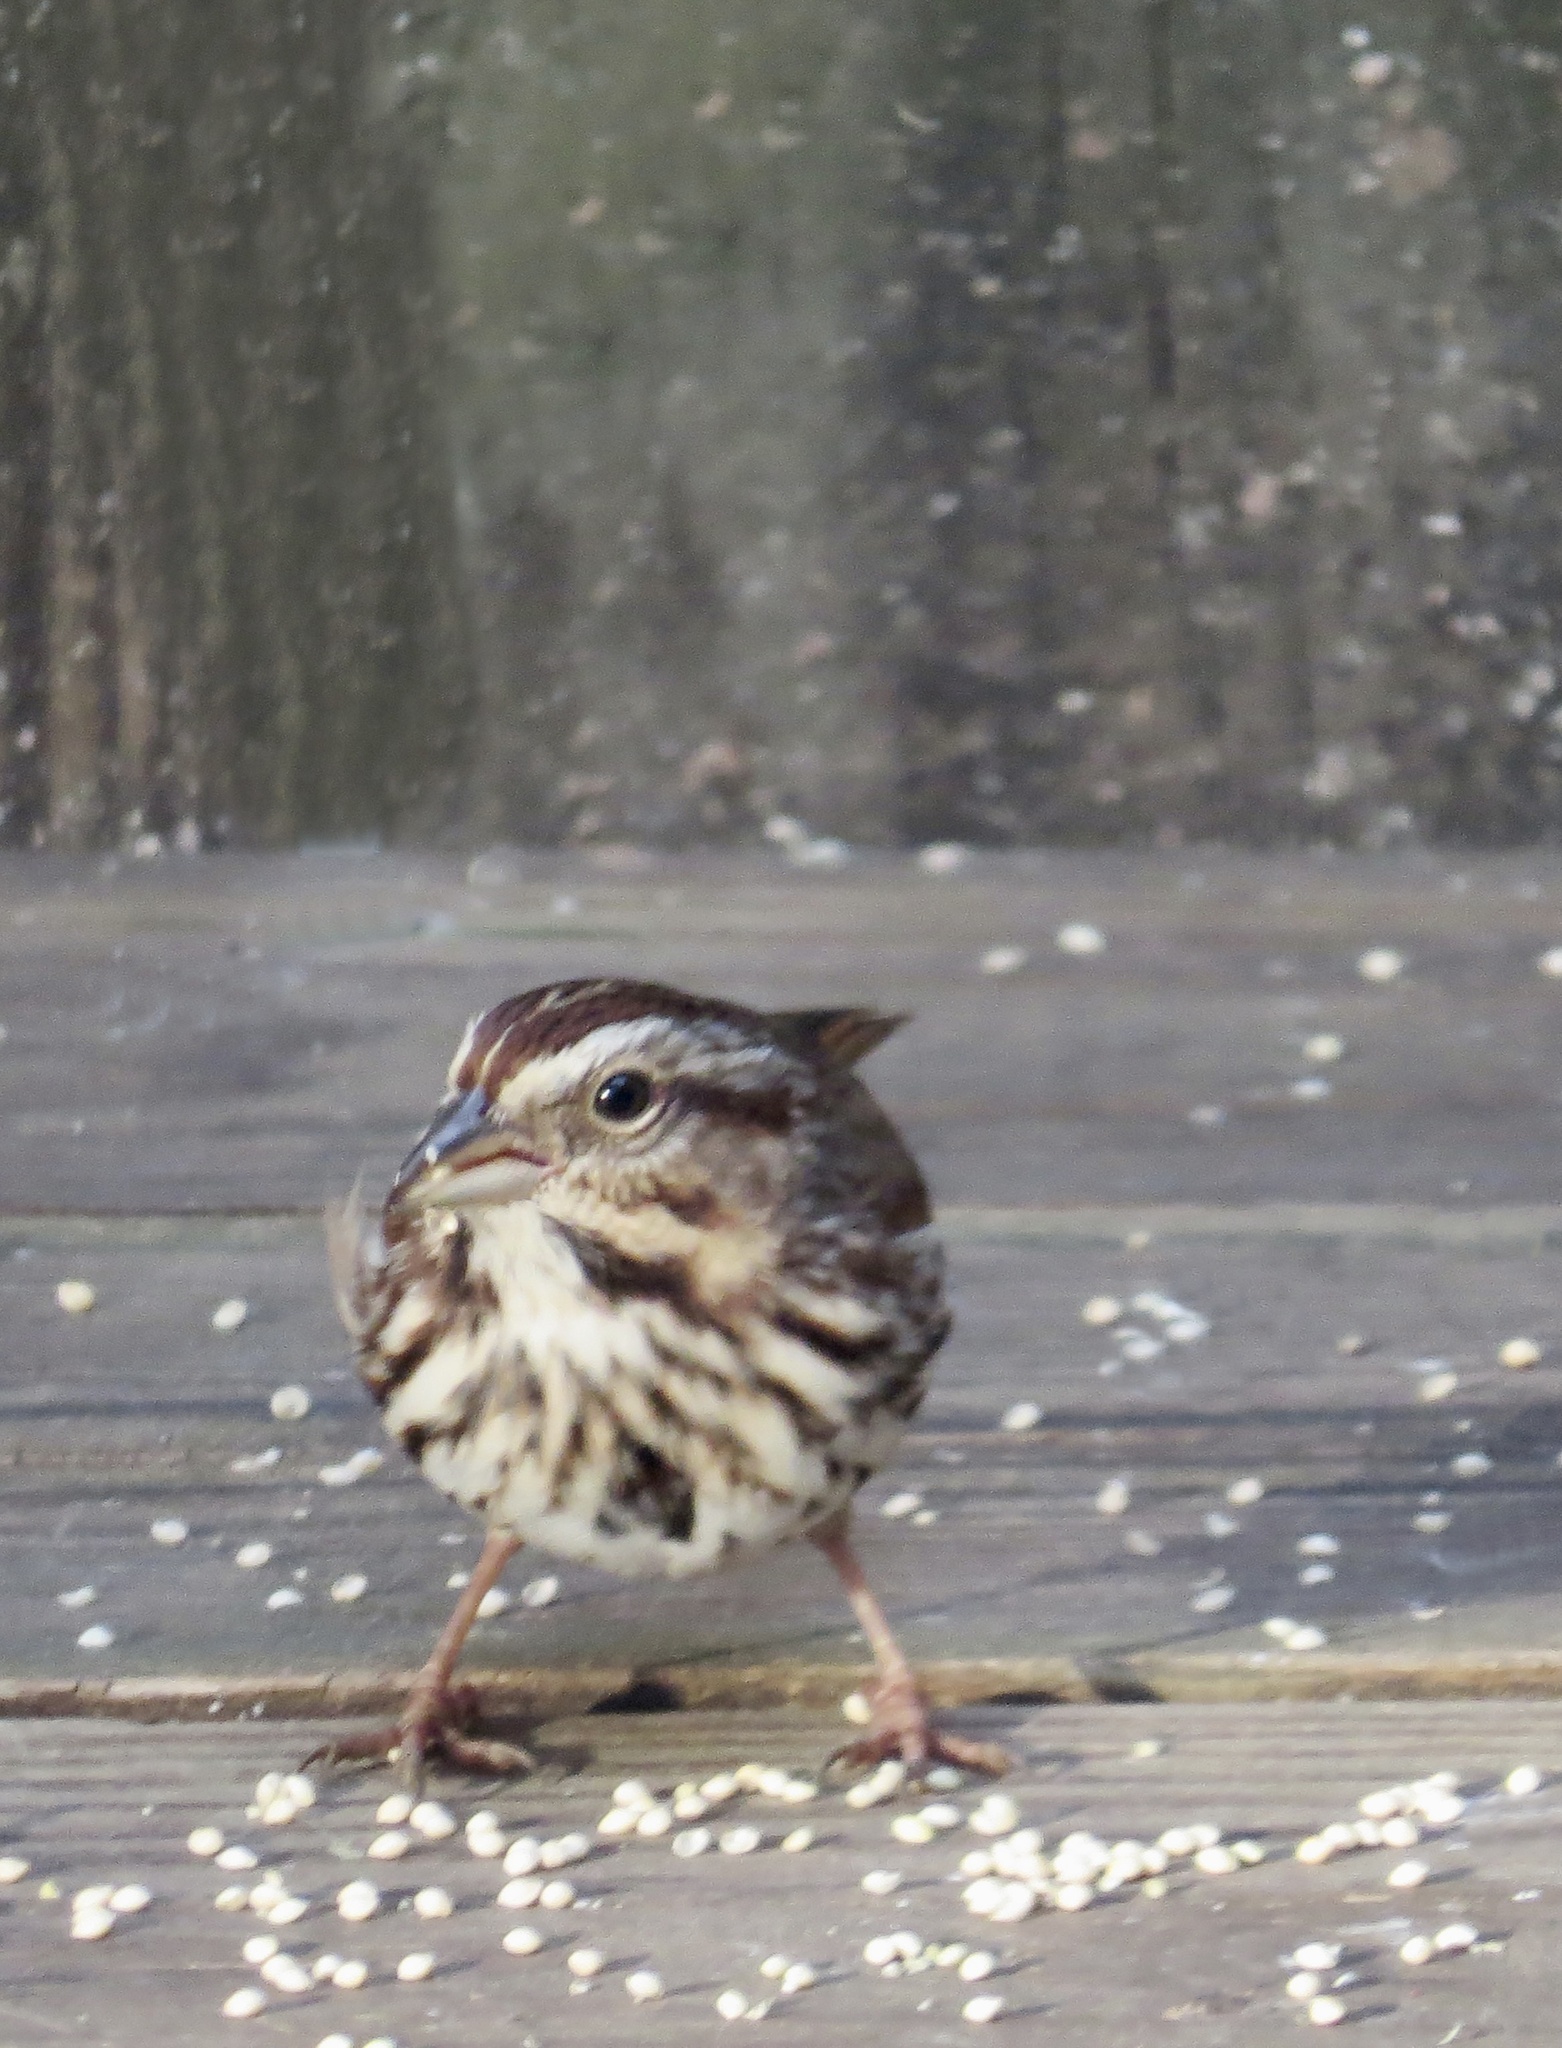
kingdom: Animalia
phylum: Chordata
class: Aves
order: Passeriformes
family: Passerellidae
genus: Melospiza
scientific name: Melospiza melodia
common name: Song sparrow
